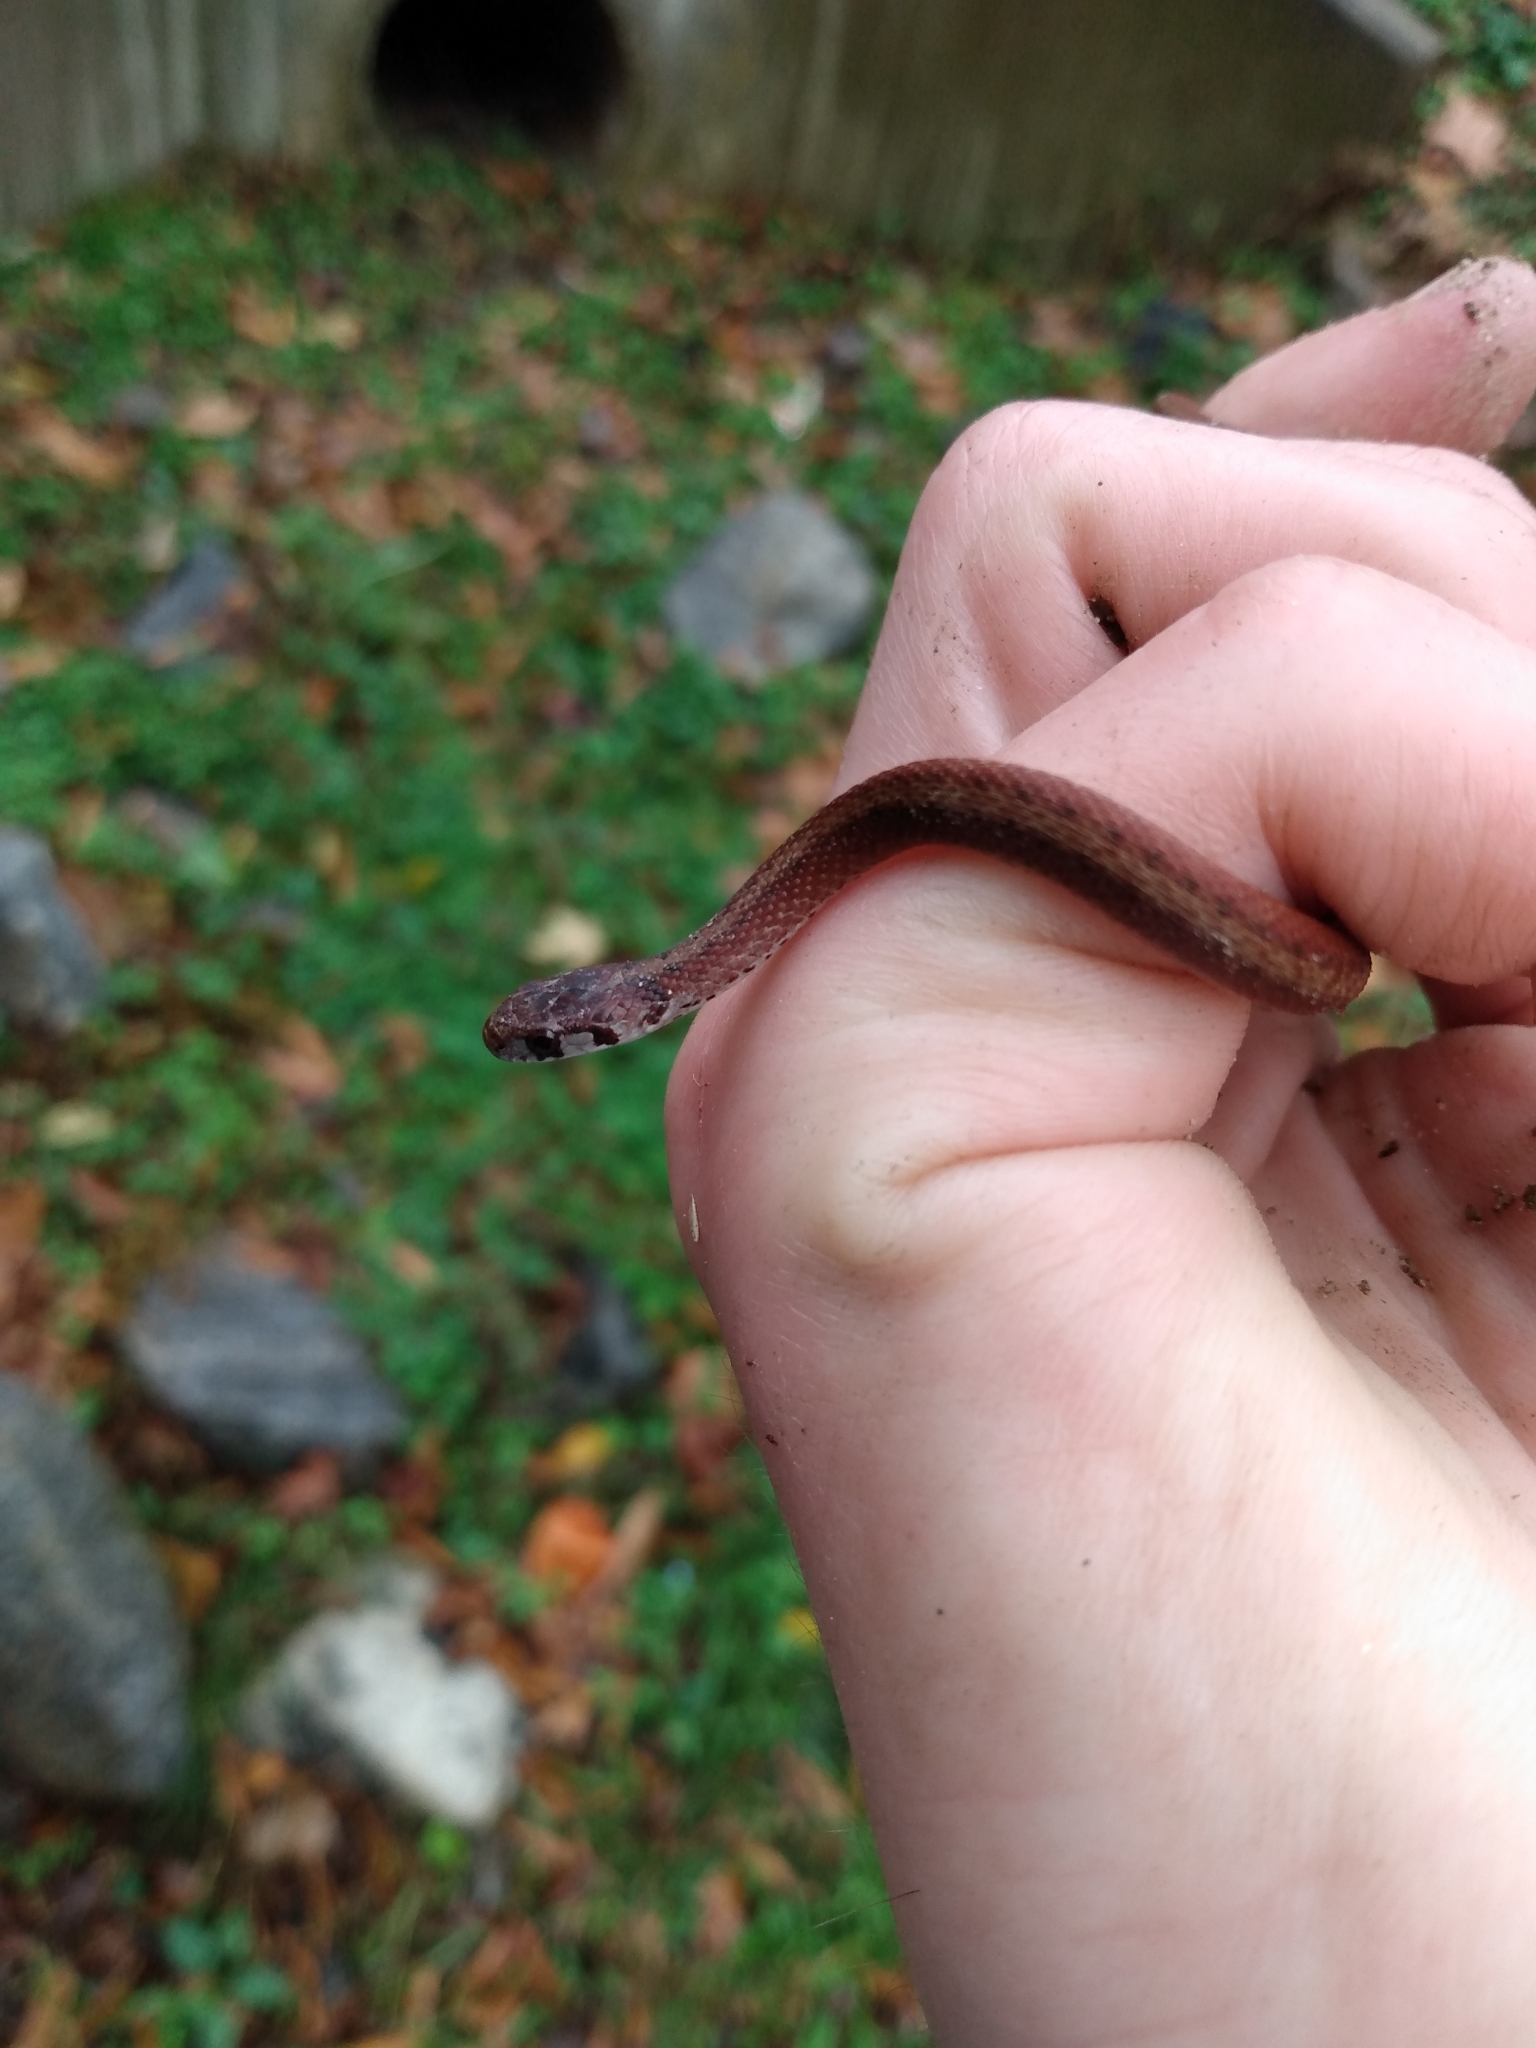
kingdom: Animalia
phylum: Chordata
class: Squamata
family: Colubridae
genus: Storeria
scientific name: Storeria dekayi
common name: (dekay’s) brown snake
